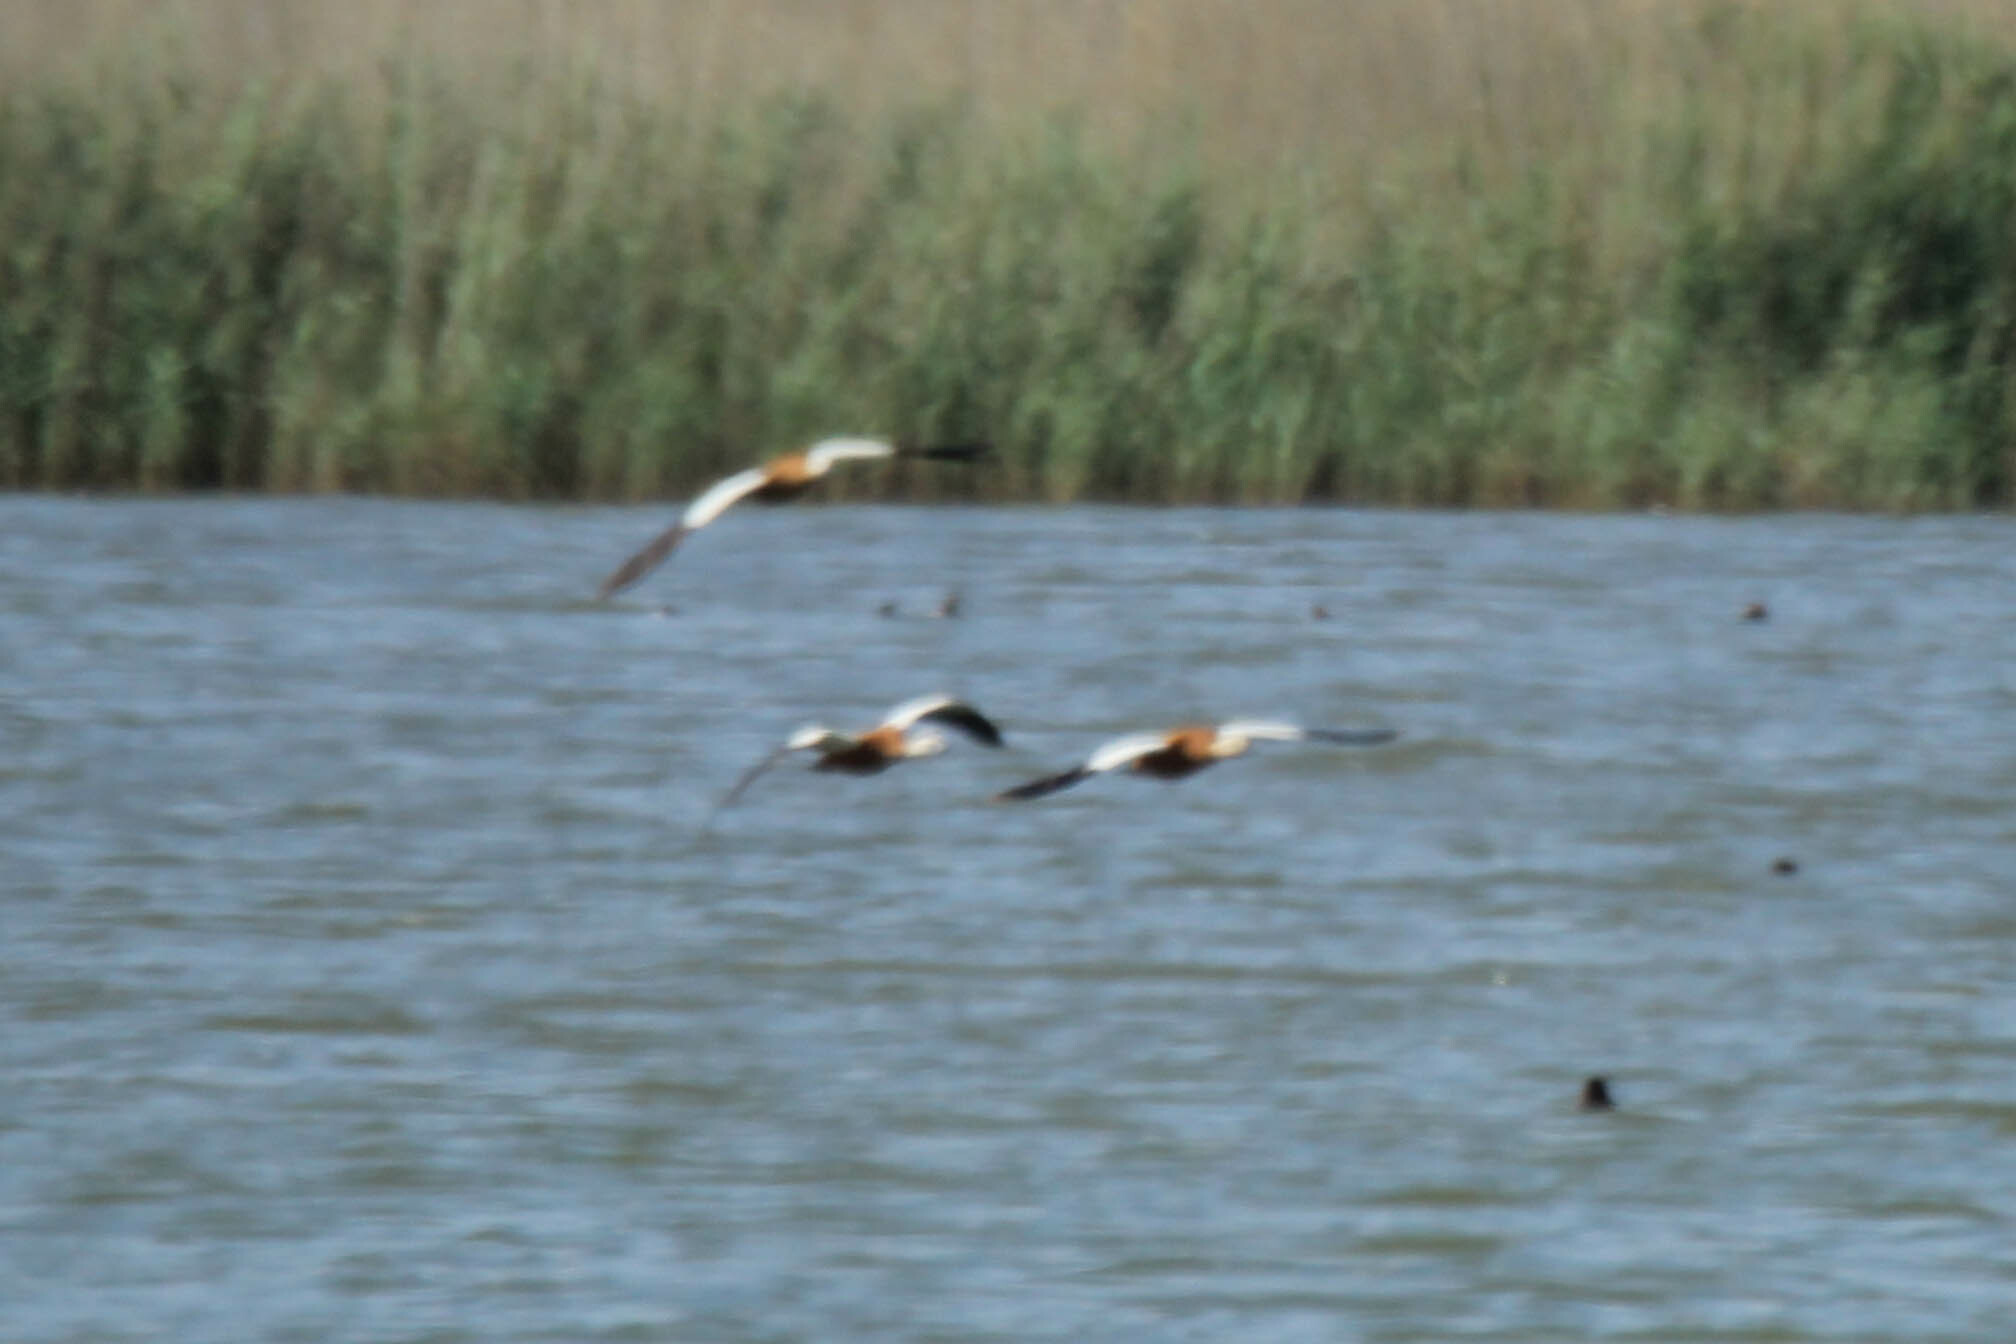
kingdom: Animalia
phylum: Chordata
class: Aves
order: Anseriformes
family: Anatidae
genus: Tadorna
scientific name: Tadorna ferruginea
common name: Ruddy shelduck
